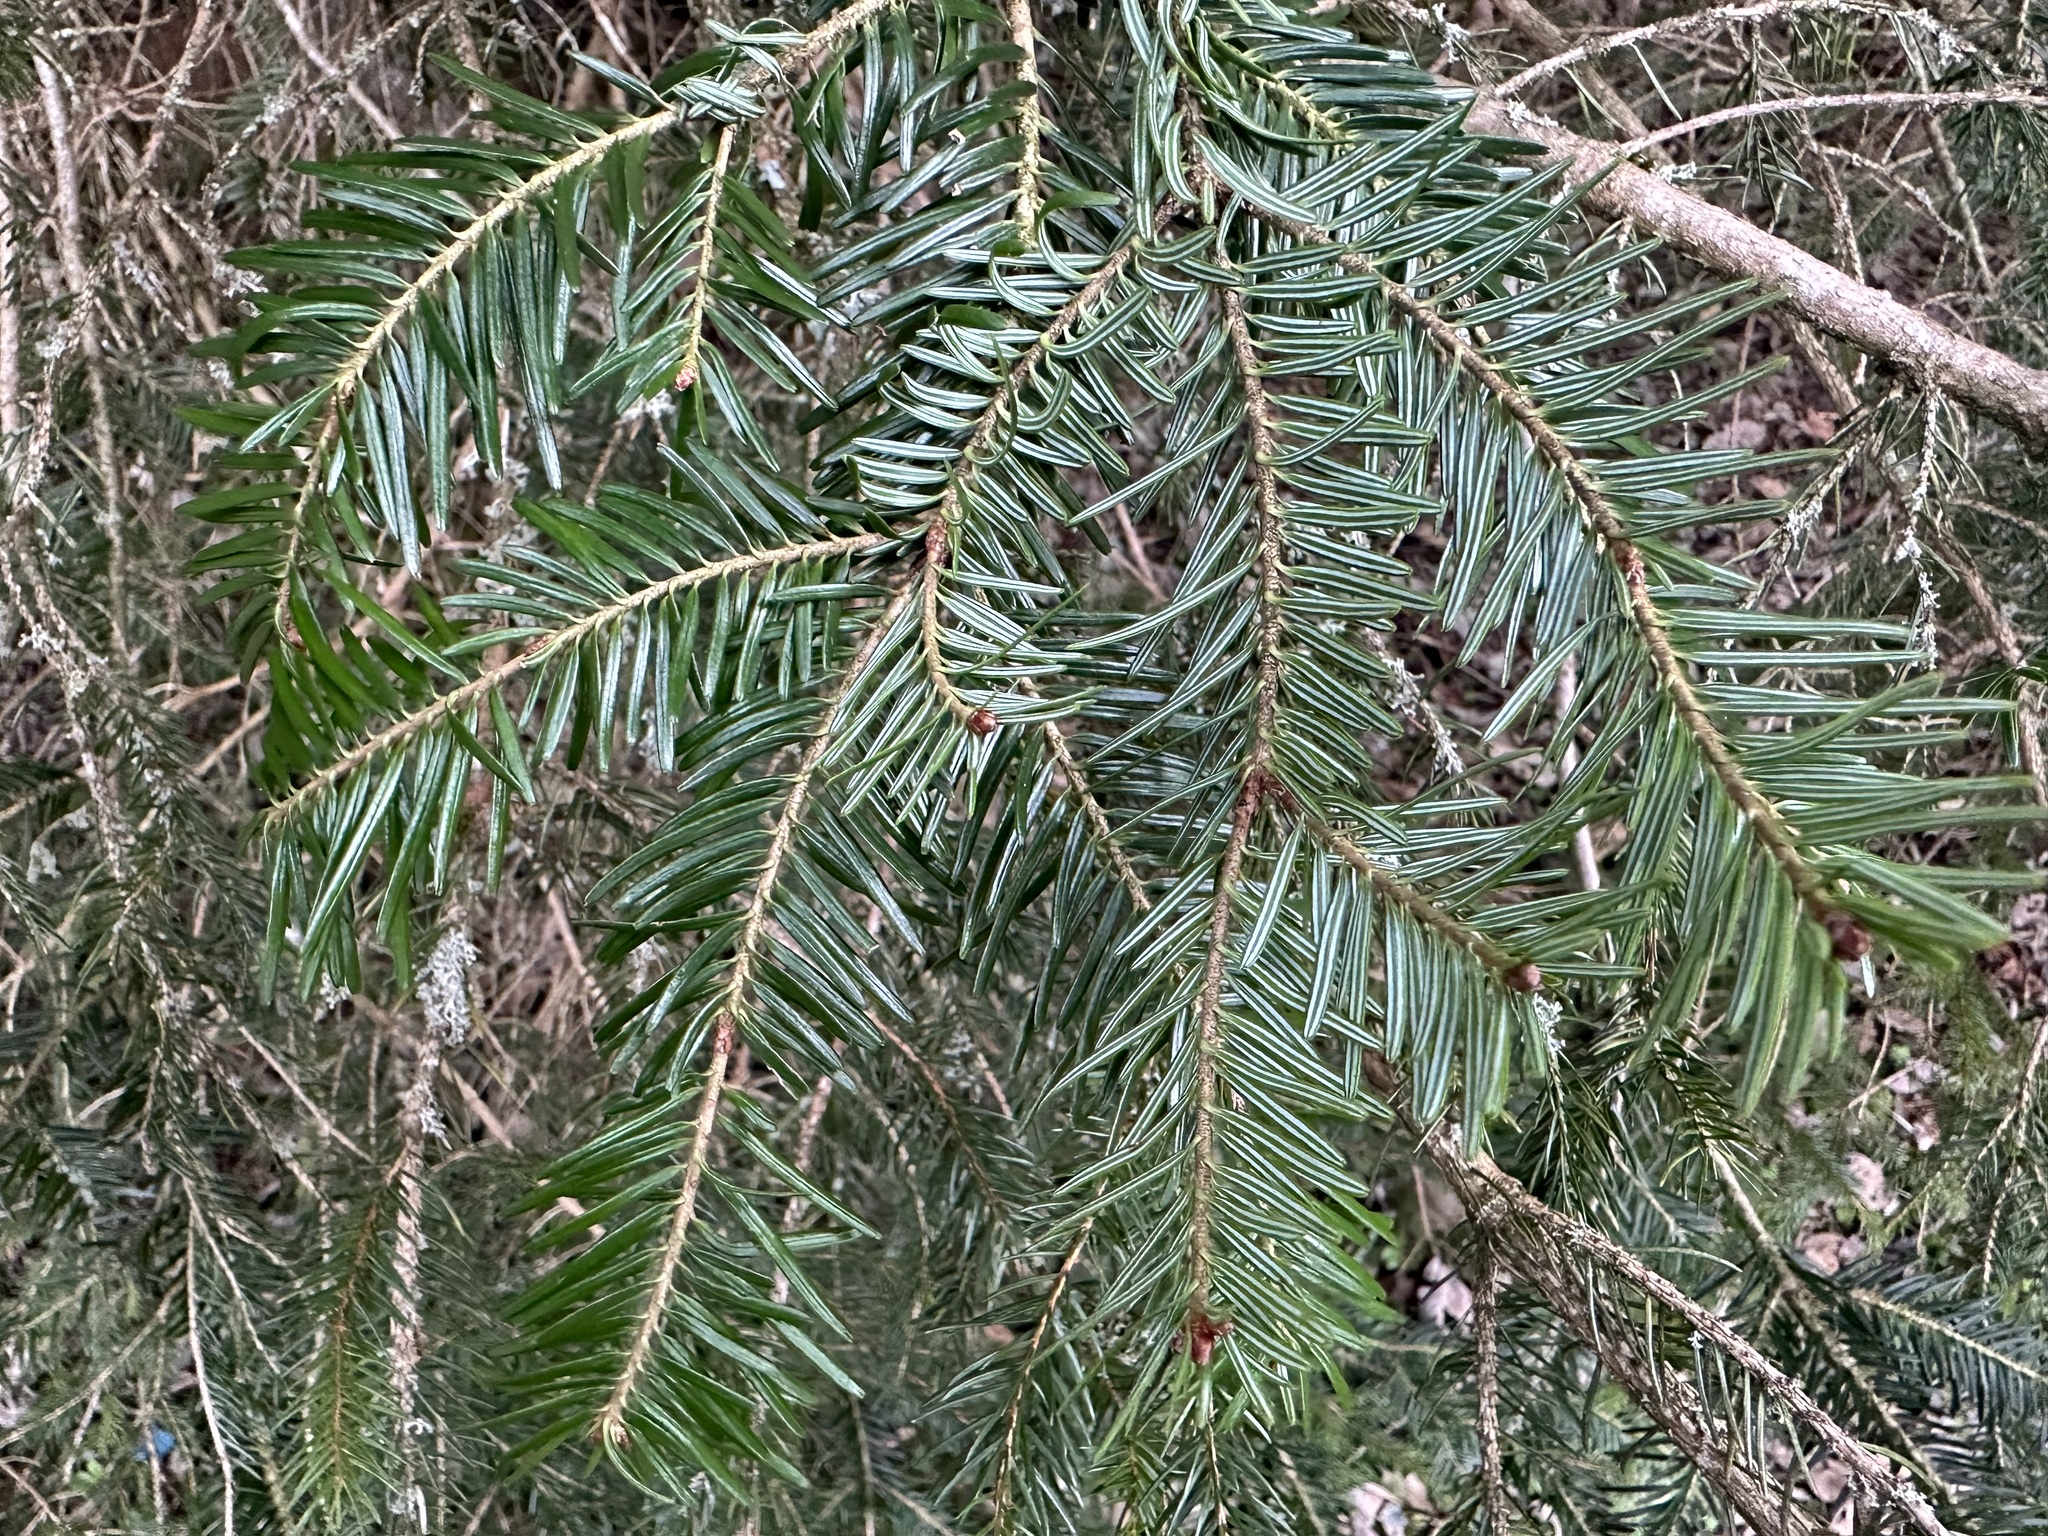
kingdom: Plantae
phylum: Tracheophyta
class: Pinopsida
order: Pinales
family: Pinaceae
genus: Abies
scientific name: Abies alba
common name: Silver fir
